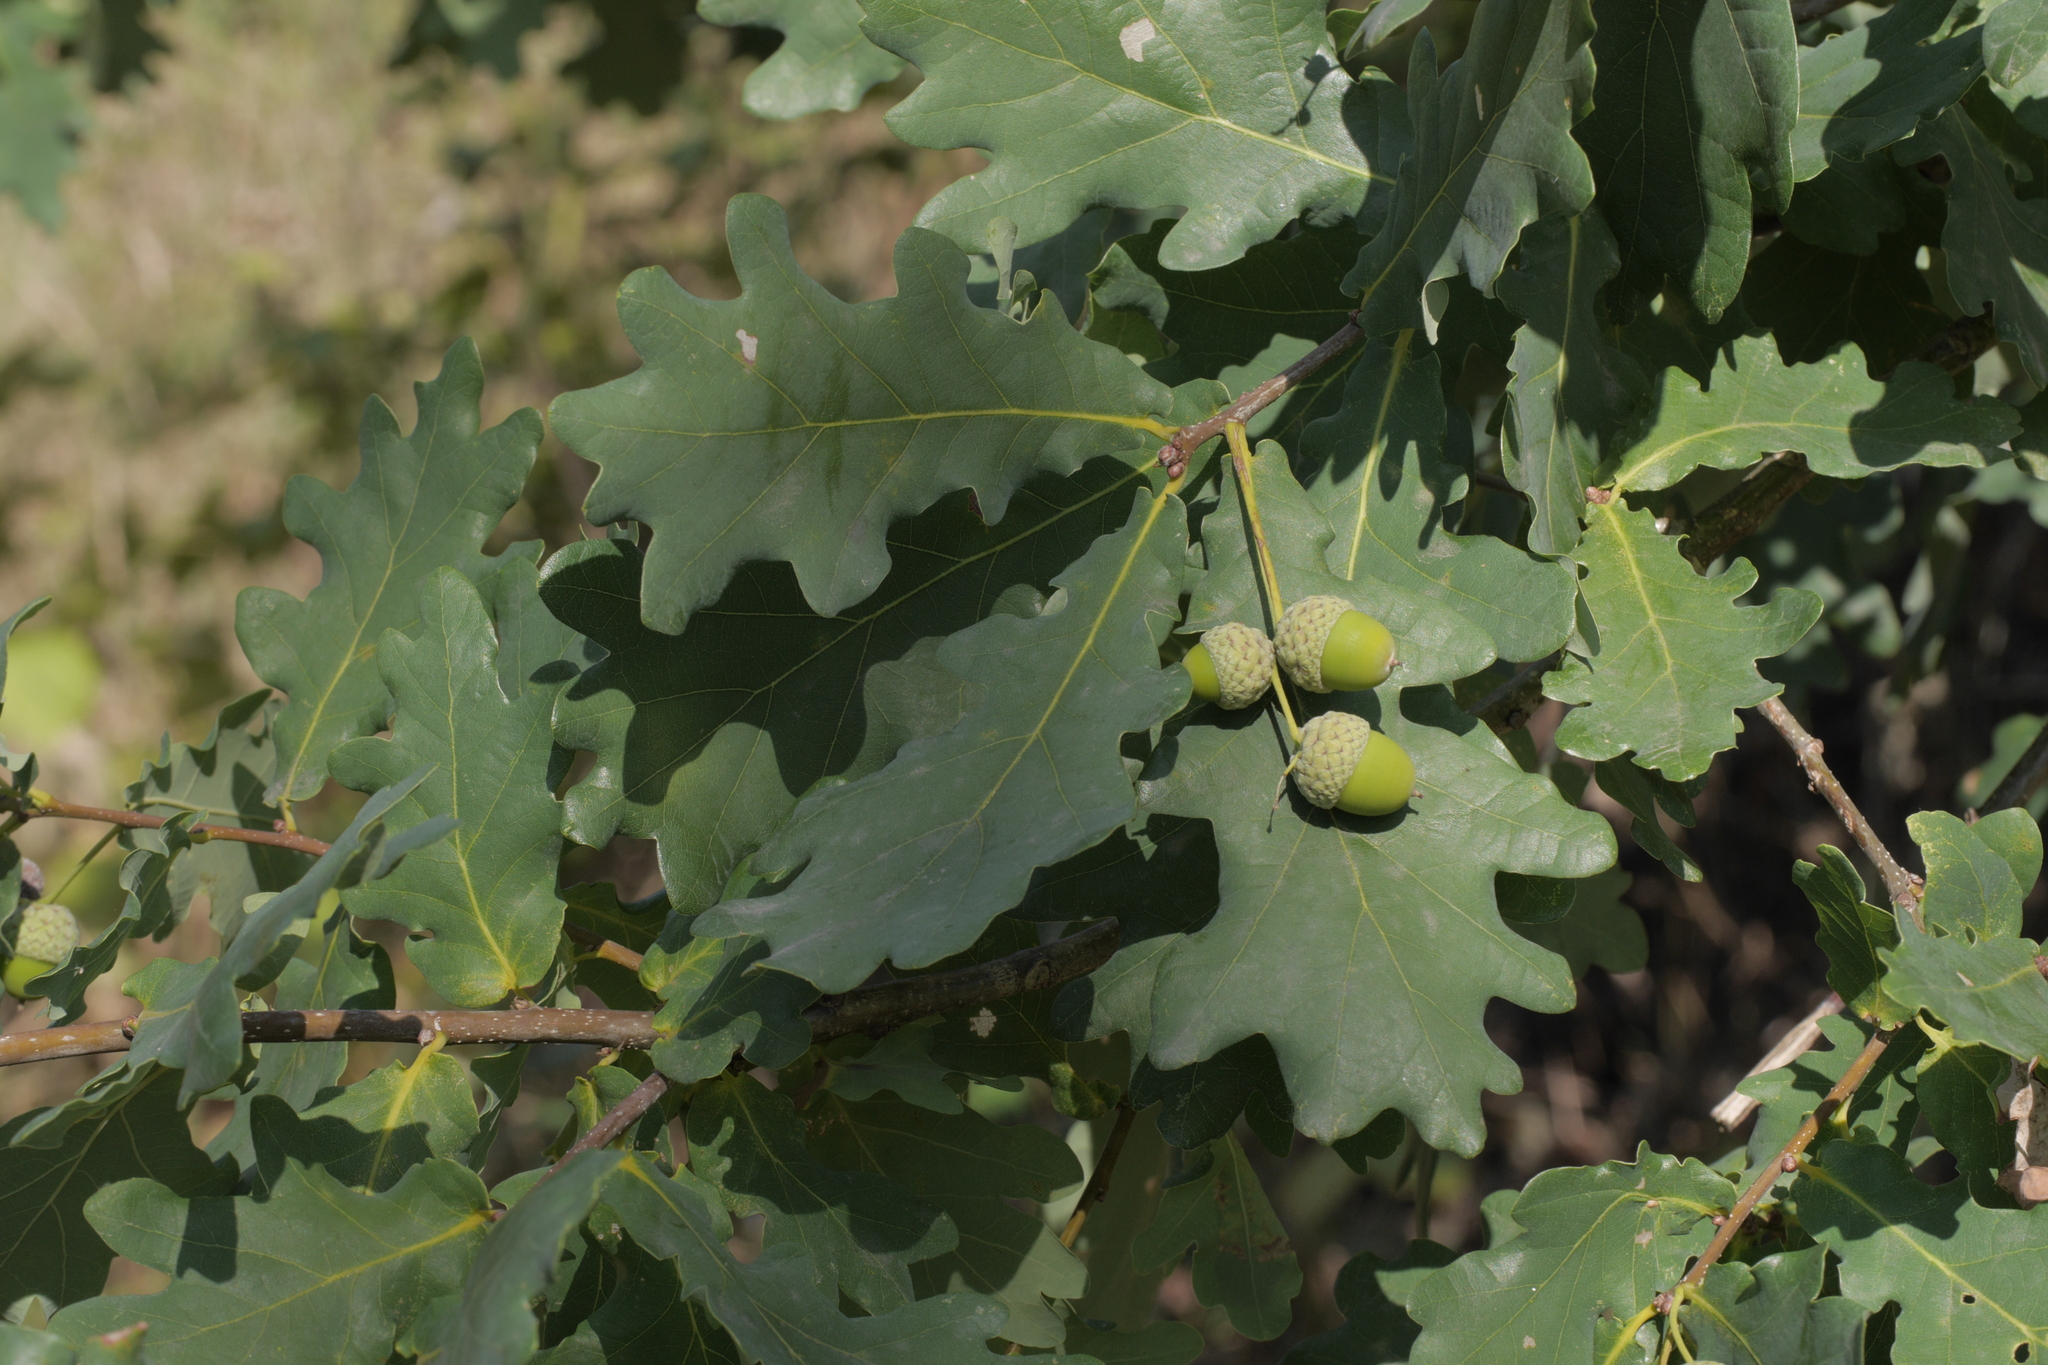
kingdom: Plantae
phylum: Tracheophyta
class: Magnoliopsida
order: Fagales
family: Fagaceae
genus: Quercus
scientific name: Quercus robur
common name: Pedunculate oak
